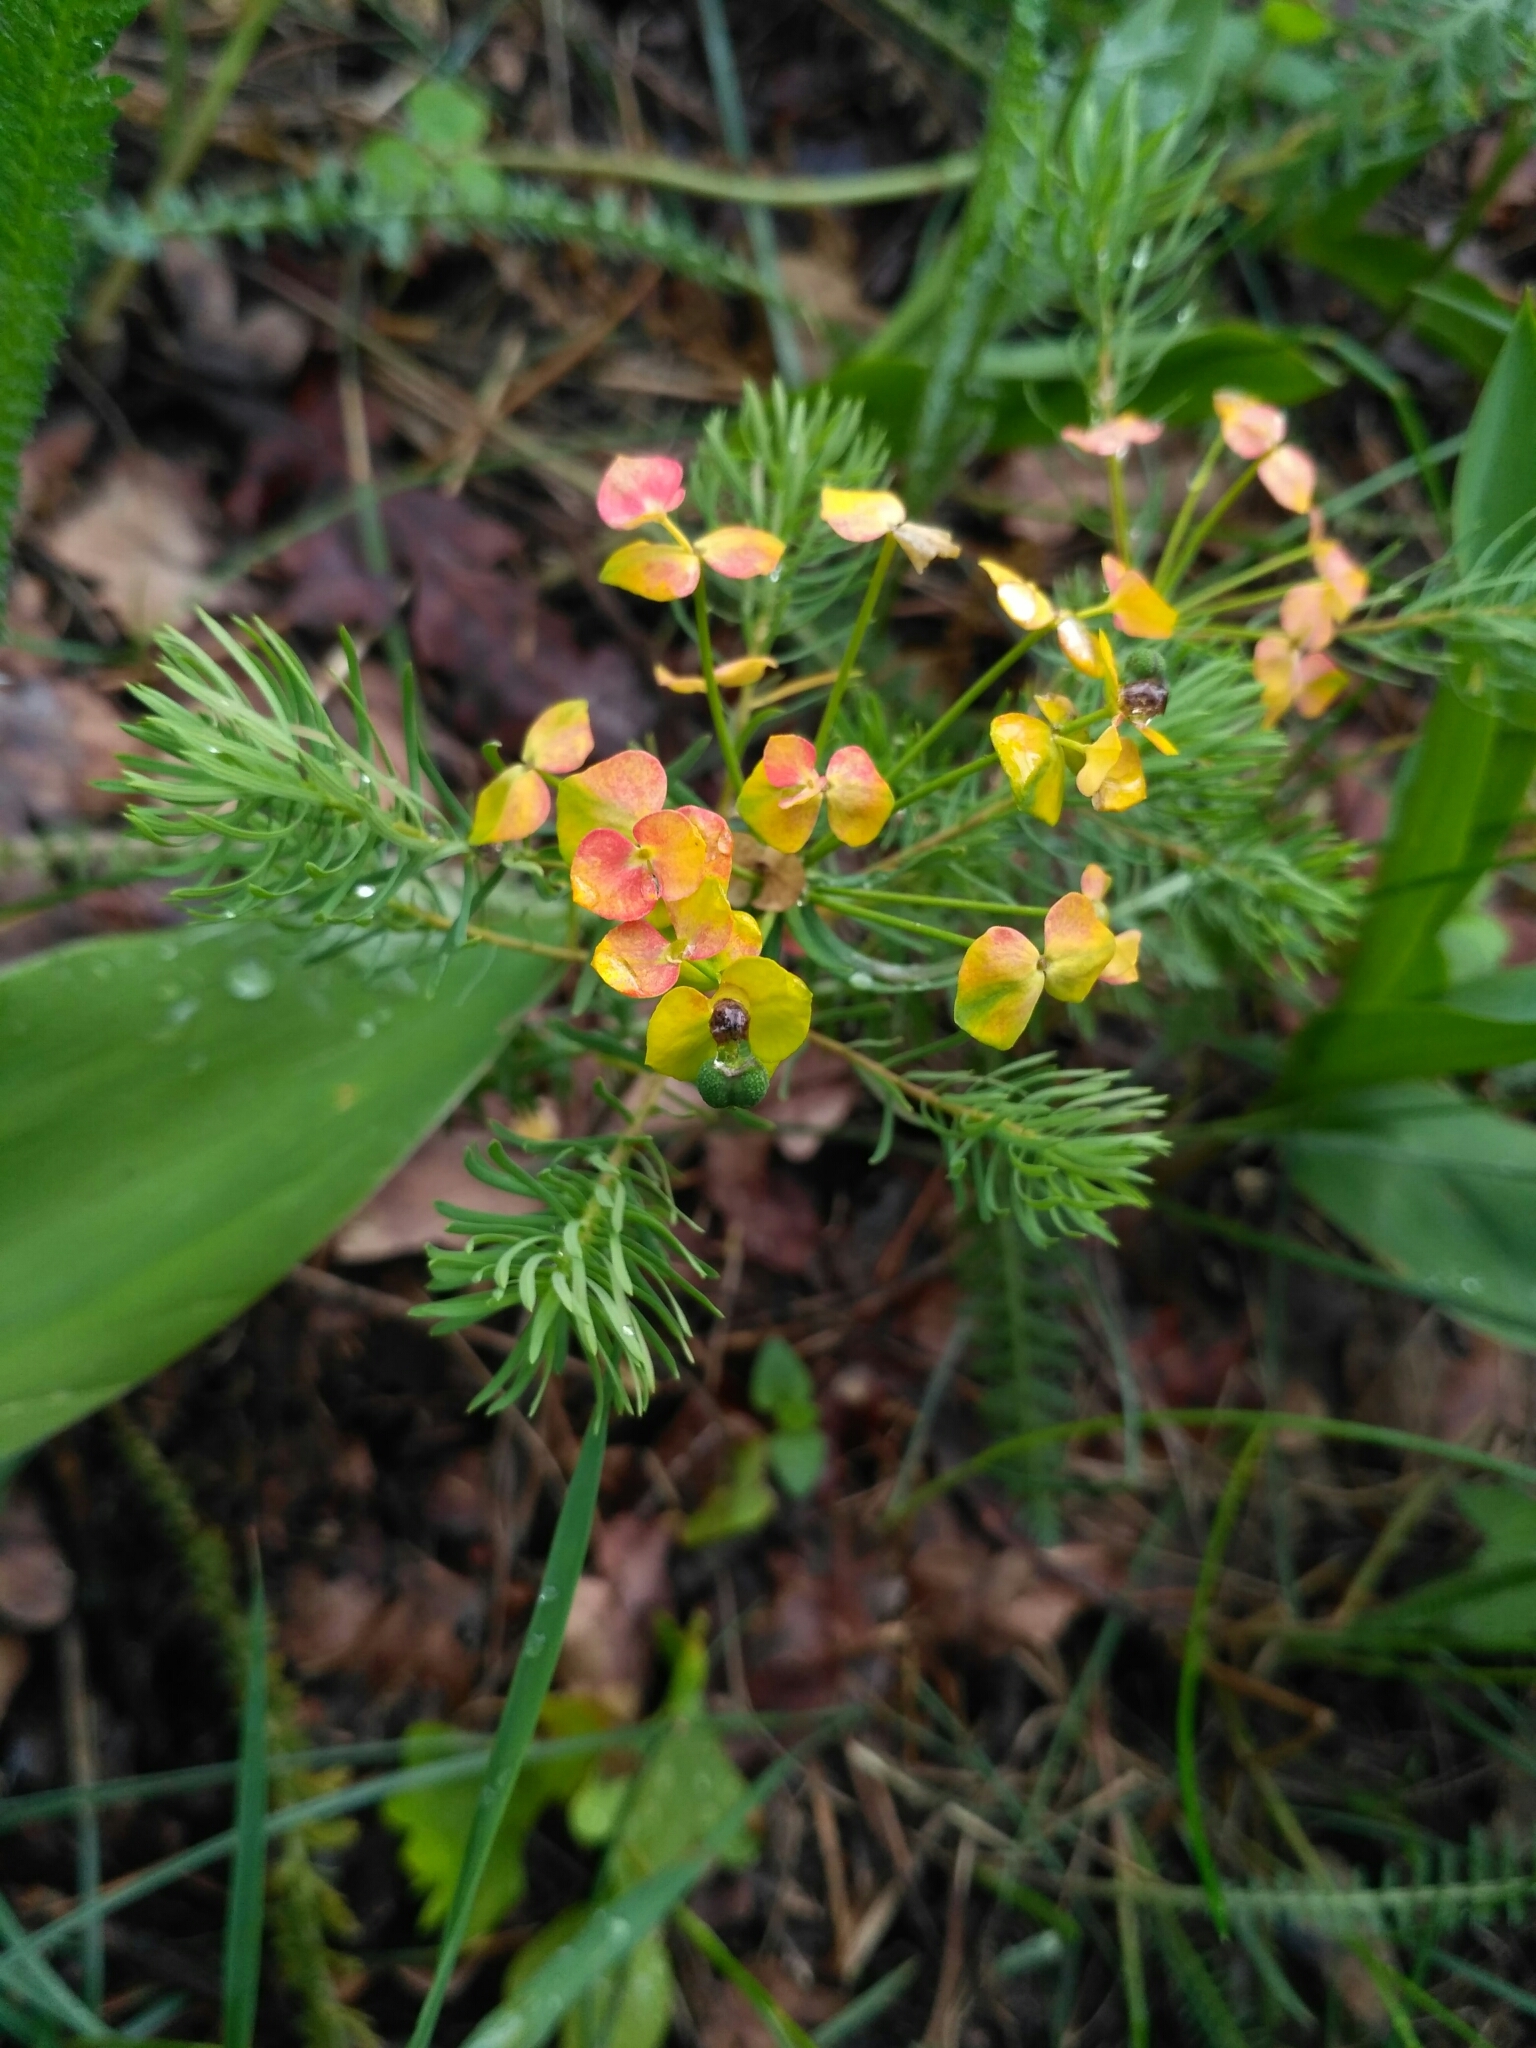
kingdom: Plantae
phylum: Tracheophyta
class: Magnoliopsida
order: Malpighiales
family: Euphorbiaceae
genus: Euphorbia
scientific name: Euphorbia cyparissias
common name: Cypress spurge
